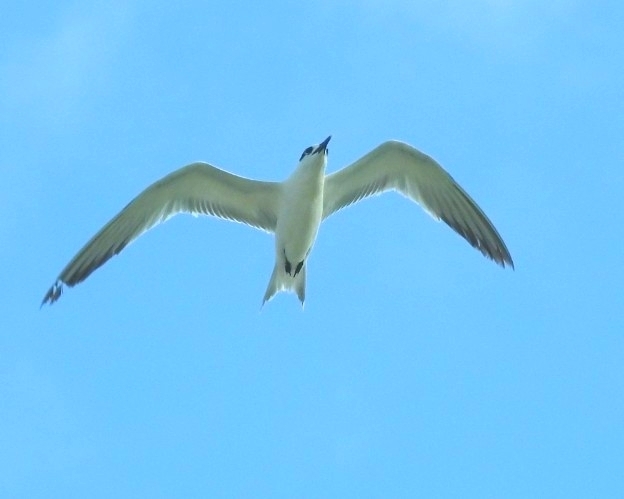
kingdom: Animalia
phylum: Chordata
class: Aves
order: Charadriiformes
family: Laridae
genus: Thalasseus
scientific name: Thalasseus sandvicensis
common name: Sandwich tern
